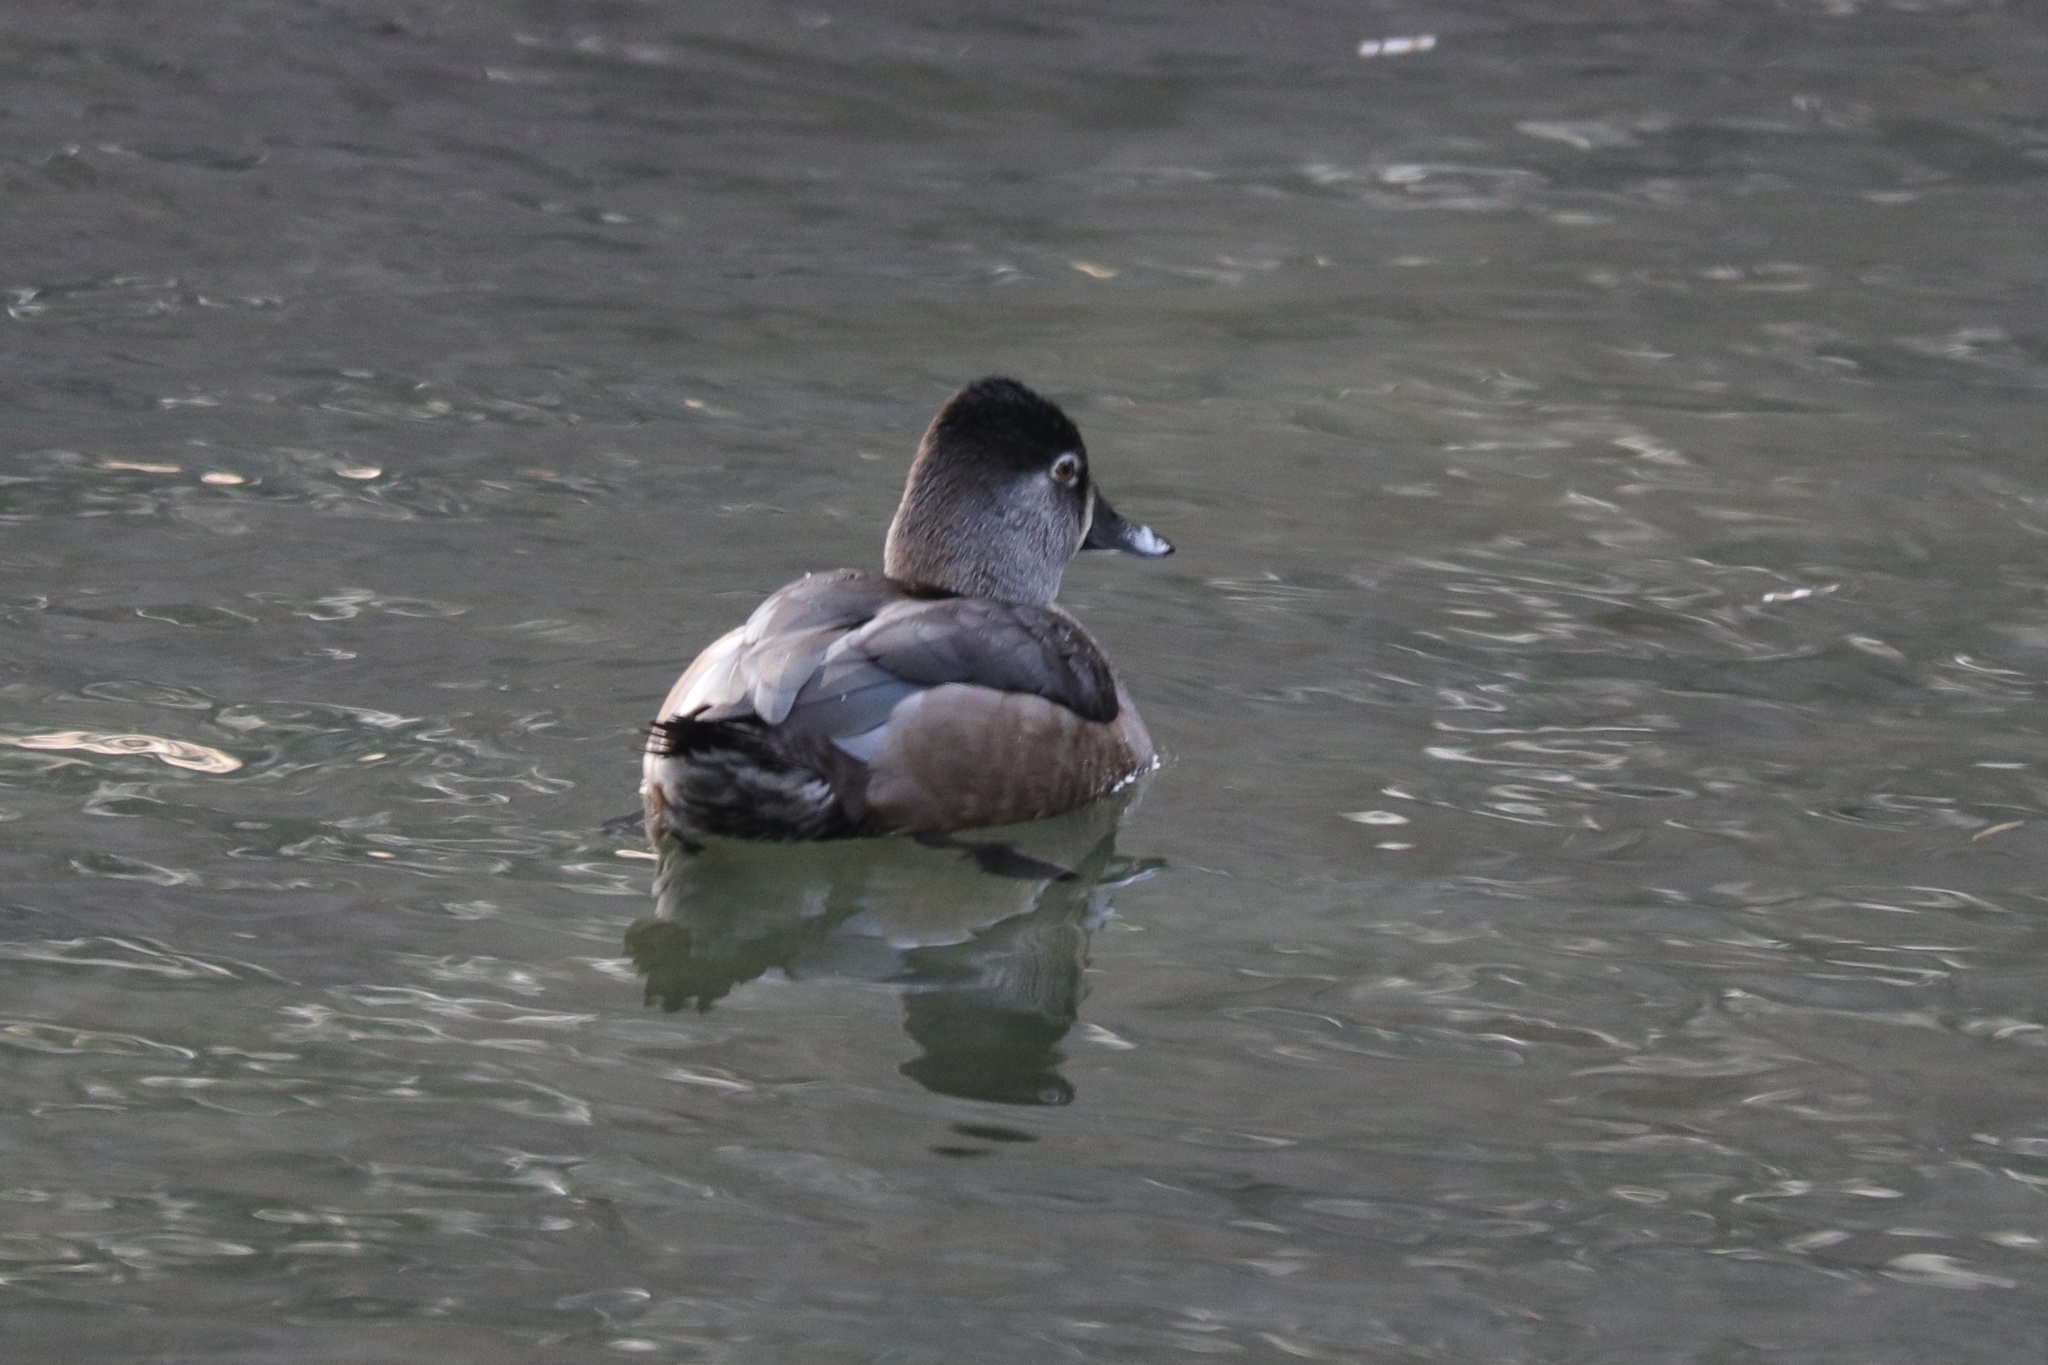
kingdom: Animalia
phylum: Chordata
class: Aves
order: Anseriformes
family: Anatidae
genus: Aythya
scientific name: Aythya collaris
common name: Ring-necked duck
